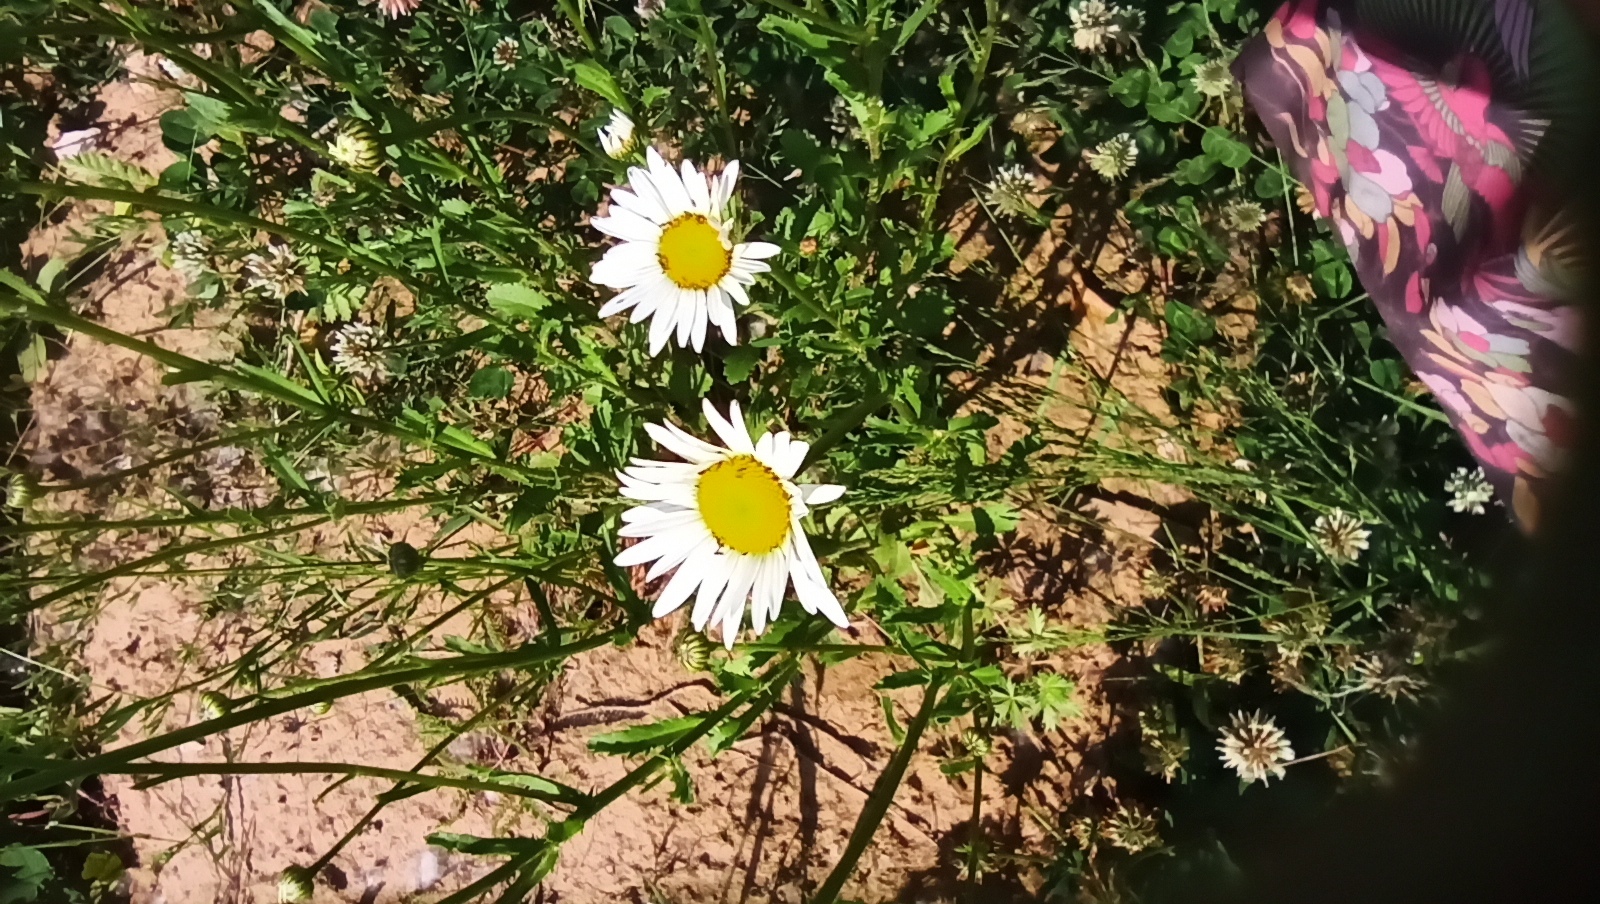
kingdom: Plantae
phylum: Tracheophyta
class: Magnoliopsida
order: Asterales
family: Asteraceae
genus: Leucanthemum
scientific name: Leucanthemum vulgare
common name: Oxeye daisy
